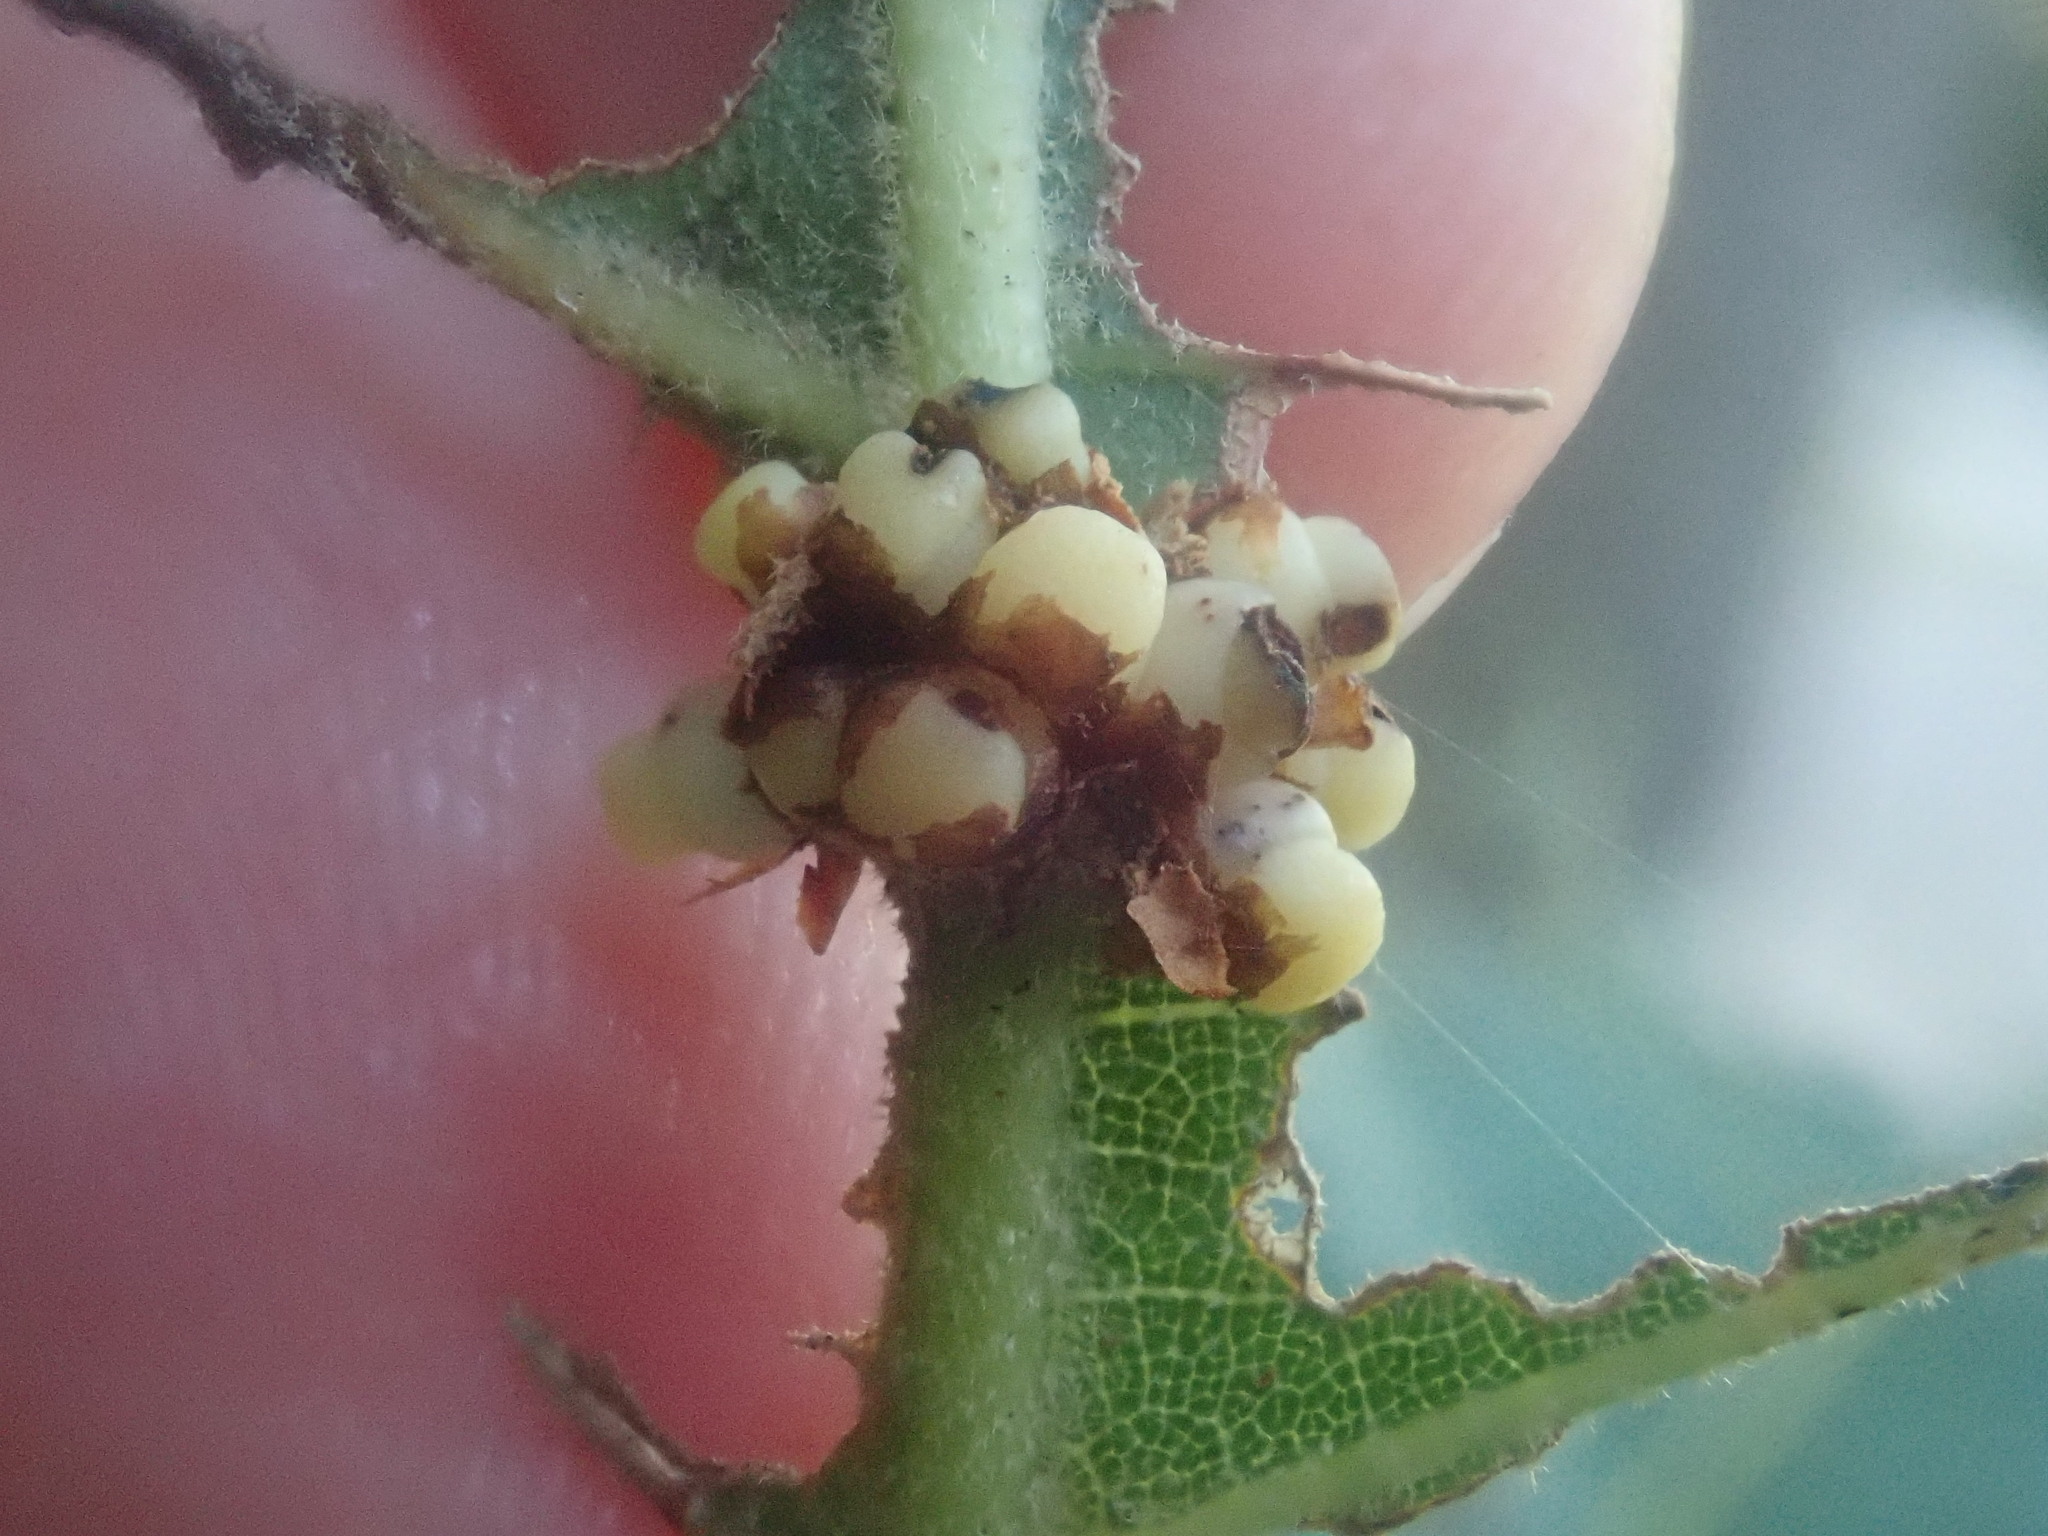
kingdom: Animalia
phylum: Arthropoda
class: Insecta
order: Hymenoptera
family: Cynipidae
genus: Kokkocynips
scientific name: Kokkocynips decidua
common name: Oak wheat gall
